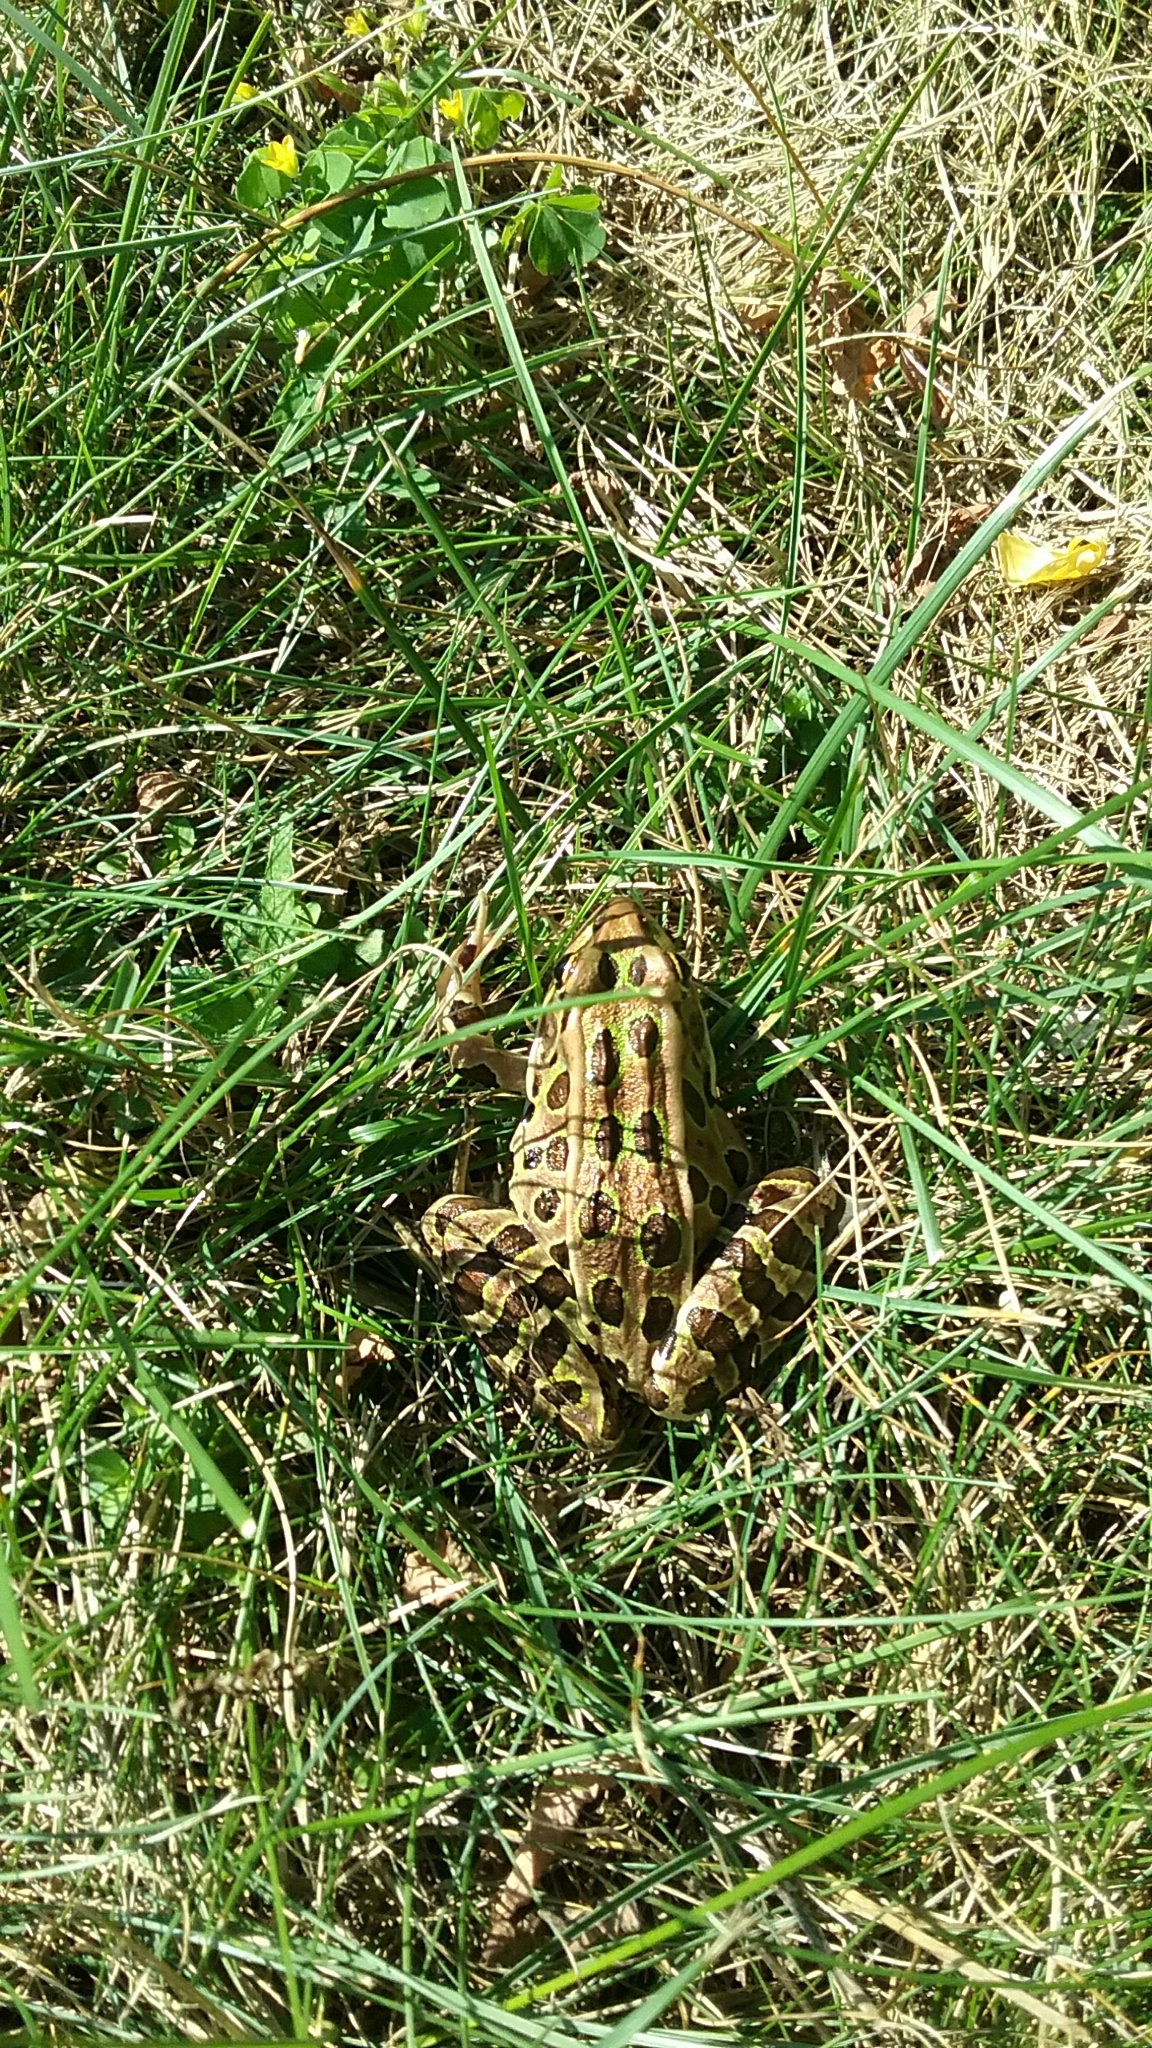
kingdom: Animalia
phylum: Chordata
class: Amphibia
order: Anura
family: Ranidae
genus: Lithobates
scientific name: Lithobates pipiens
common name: Northern leopard frog
